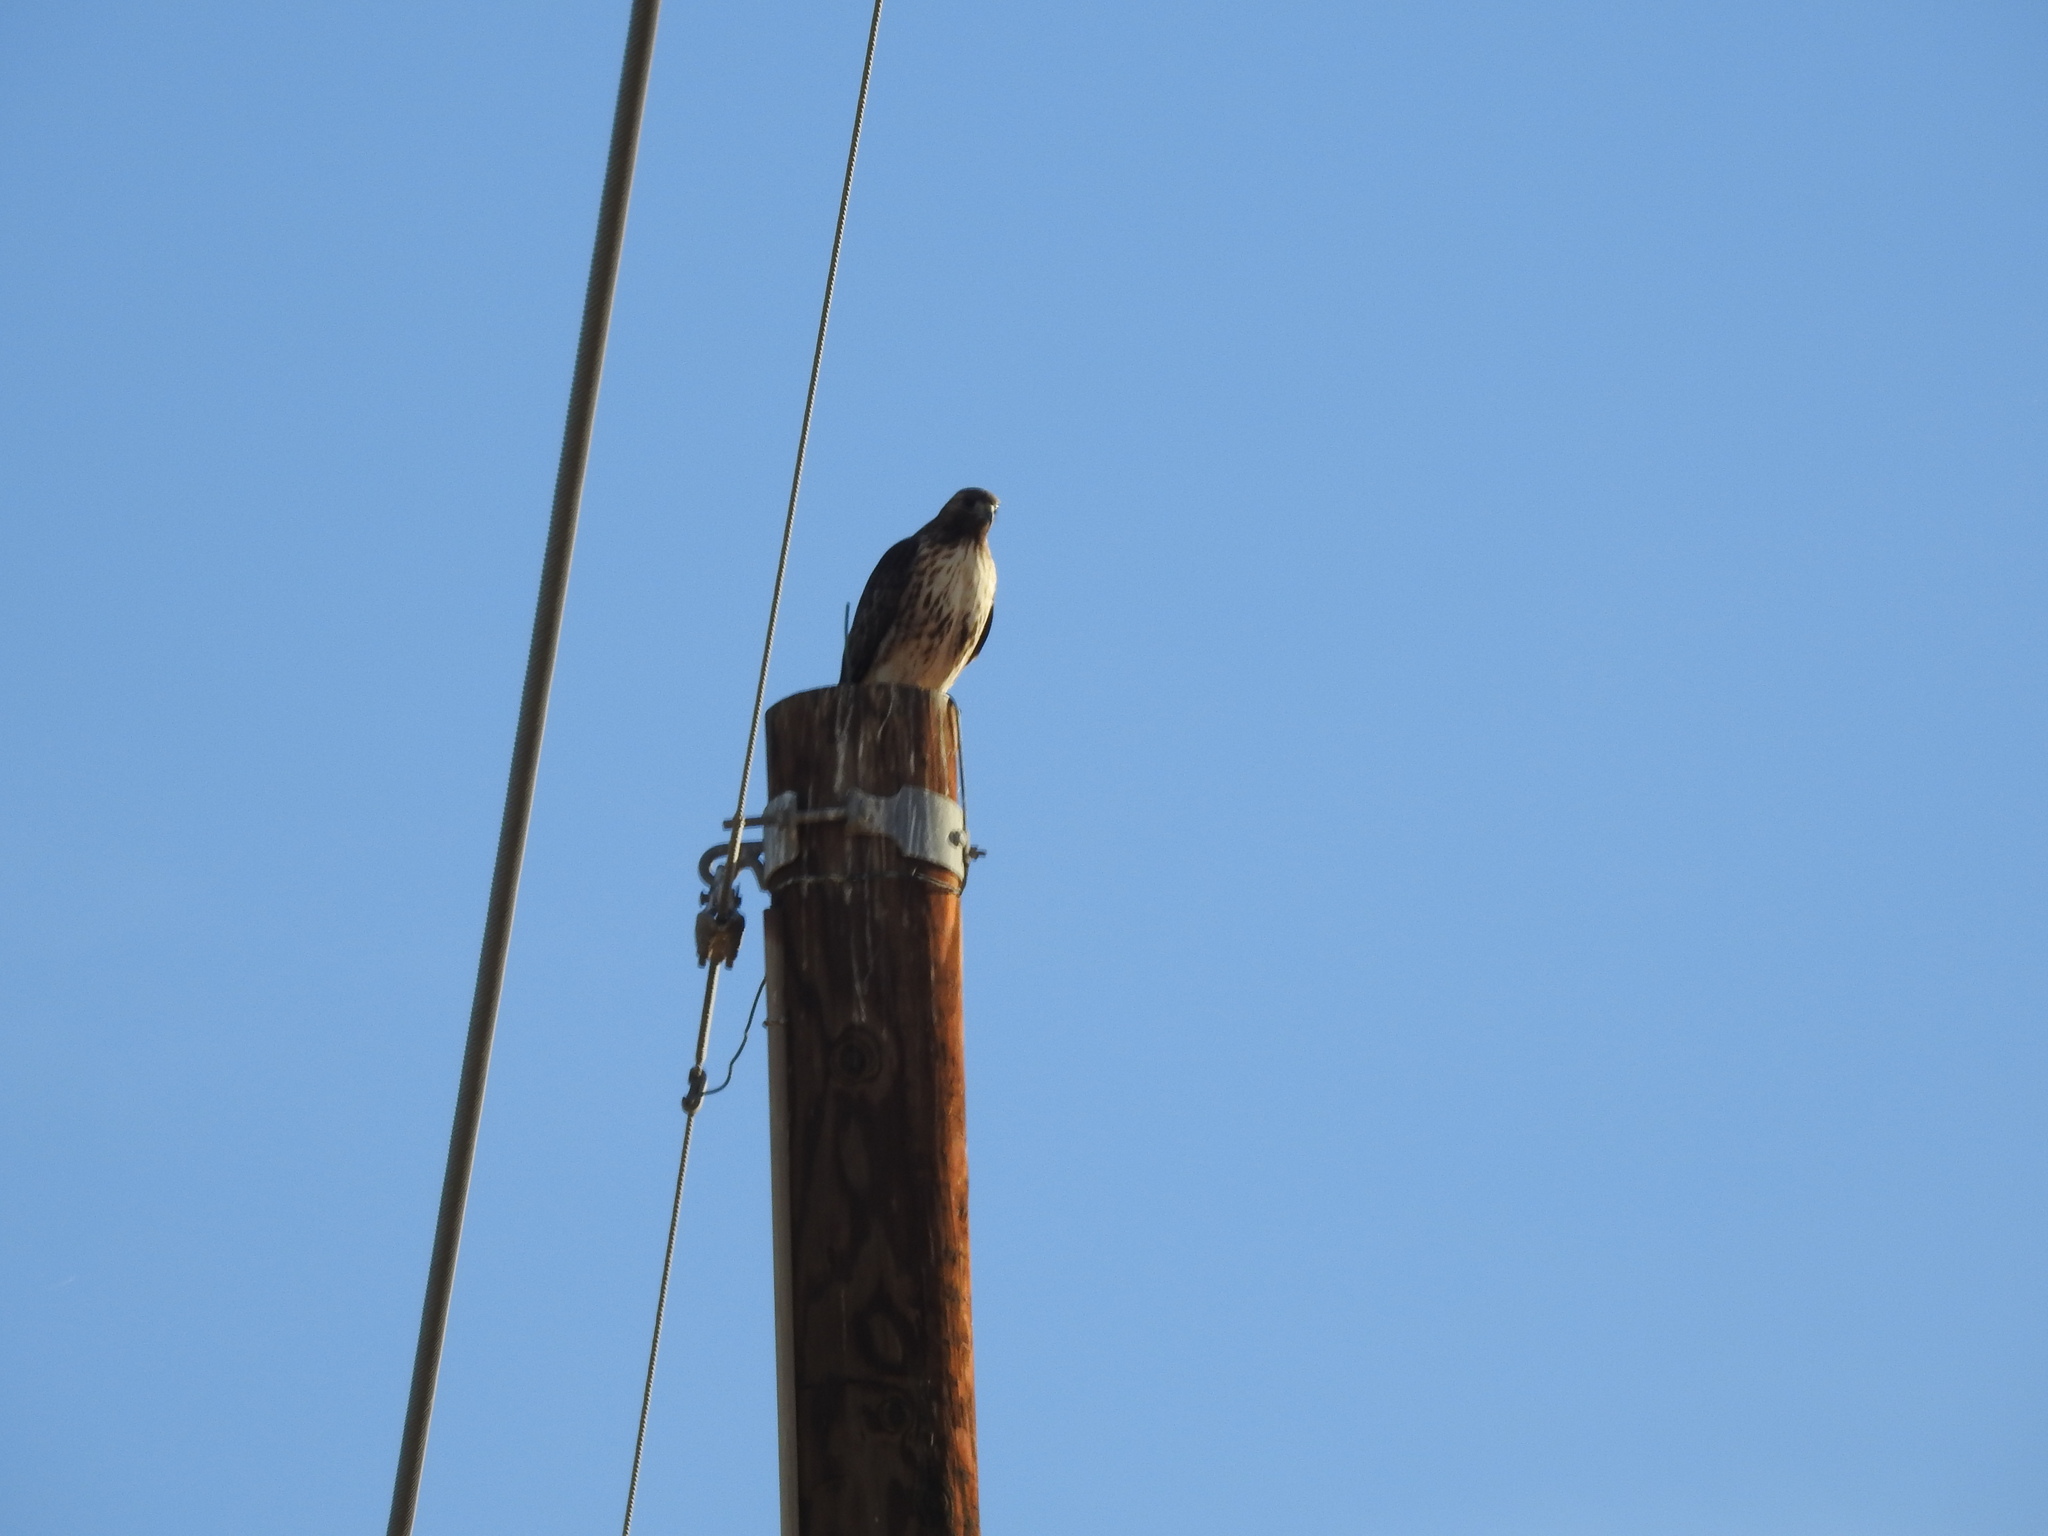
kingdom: Animalia
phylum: Chordata
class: Aves
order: Accipitriformes
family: Accipitridae
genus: Buteo
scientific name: Buteo jamaicensis
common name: Red-tailed hawk
